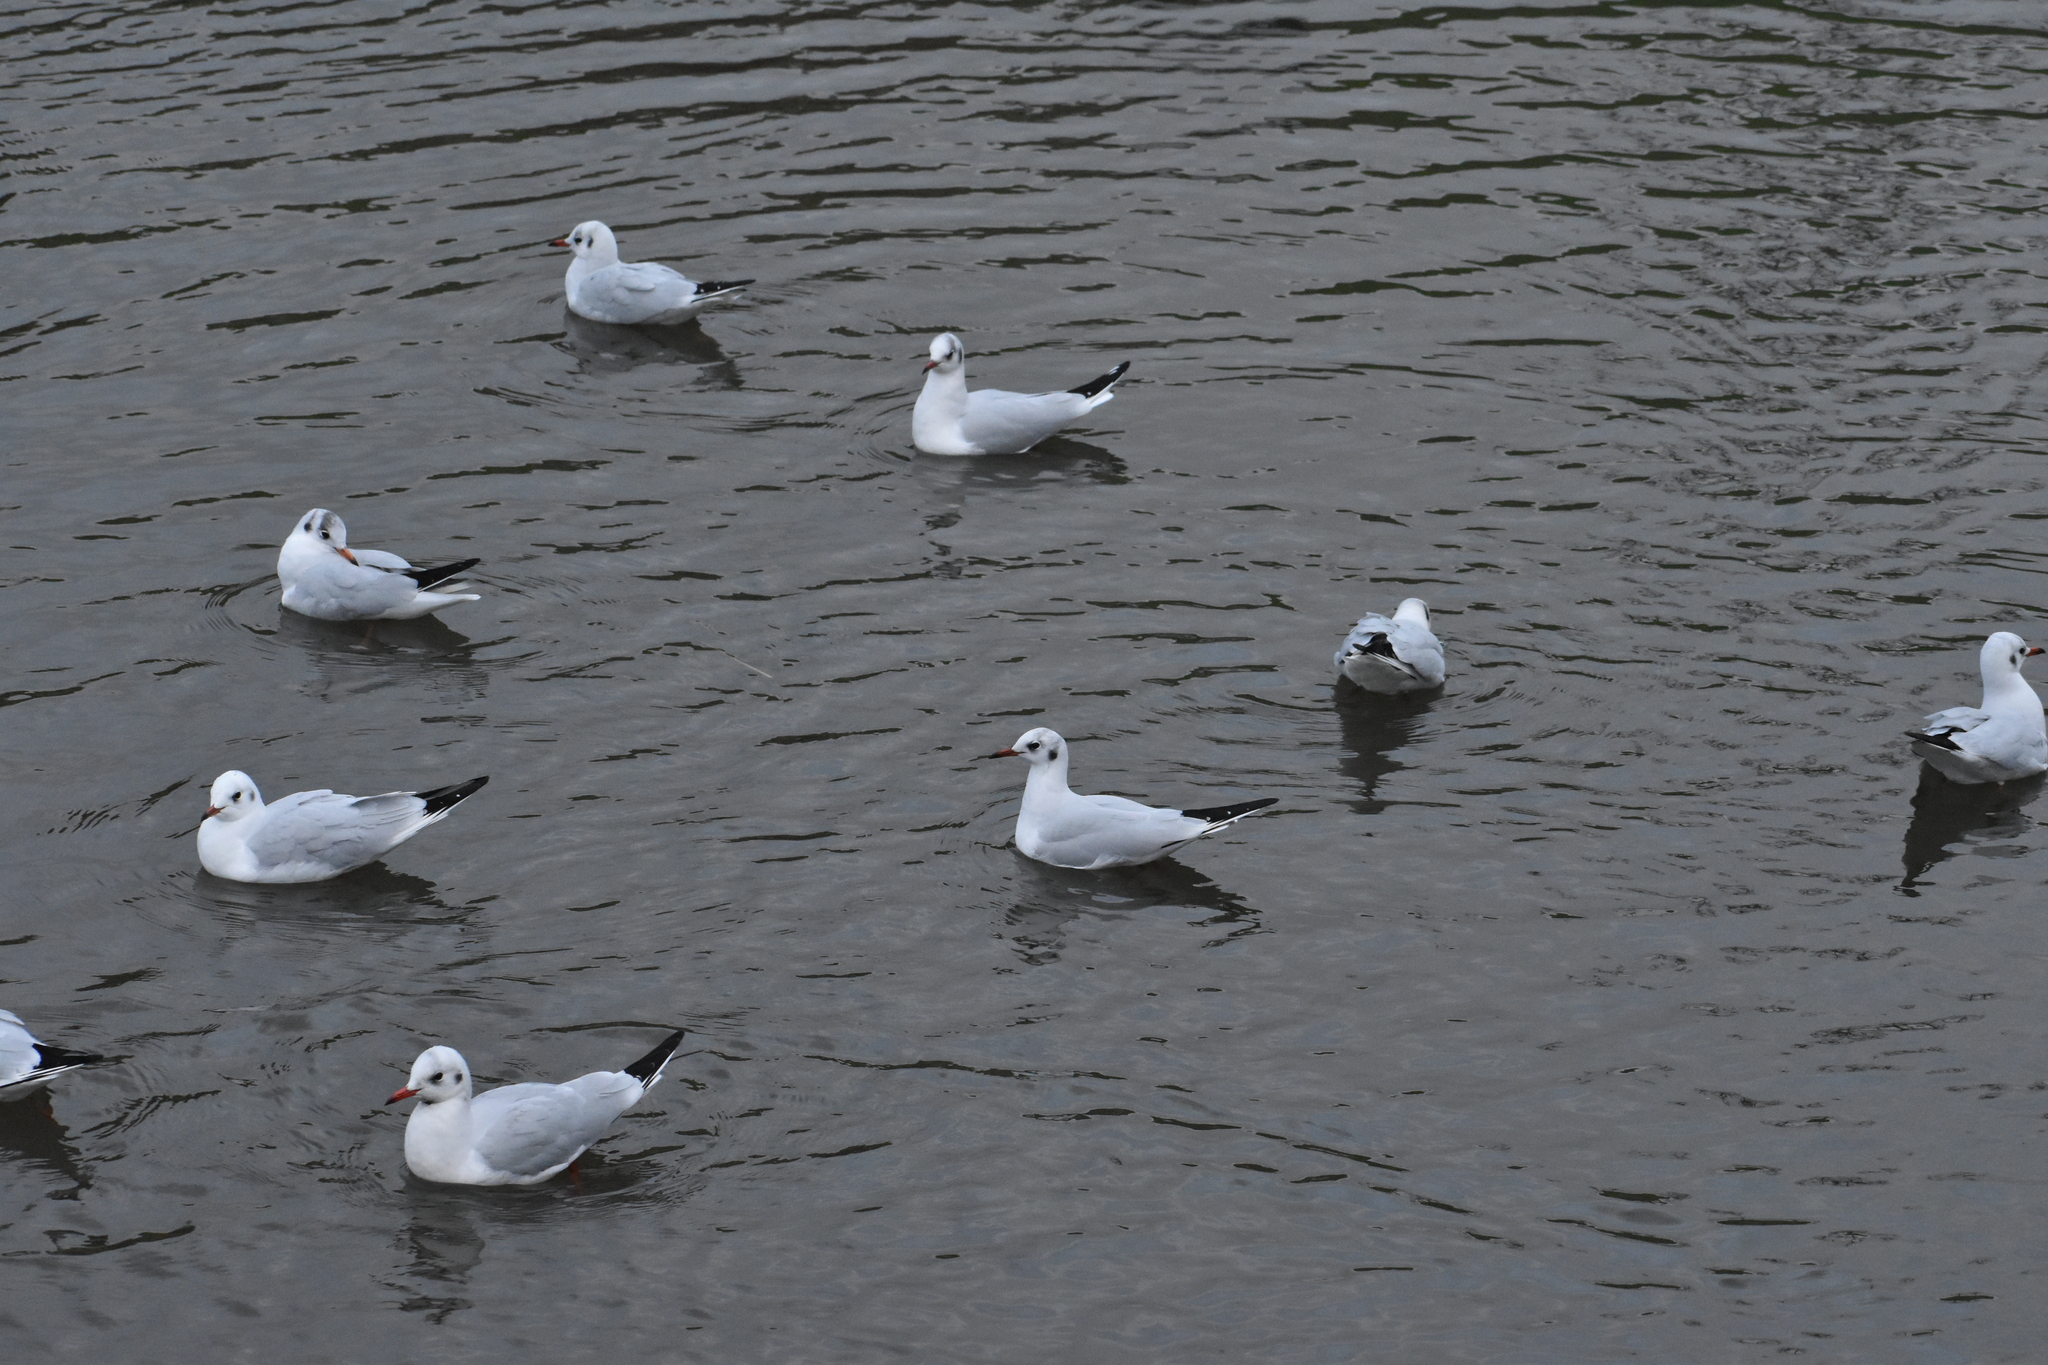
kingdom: Animalia
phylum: Chordata
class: Aves
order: Charadriiformes
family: Laridae
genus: Chroicocephalus
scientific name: Chroicocephalus ridibundus
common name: Black-headed gull
